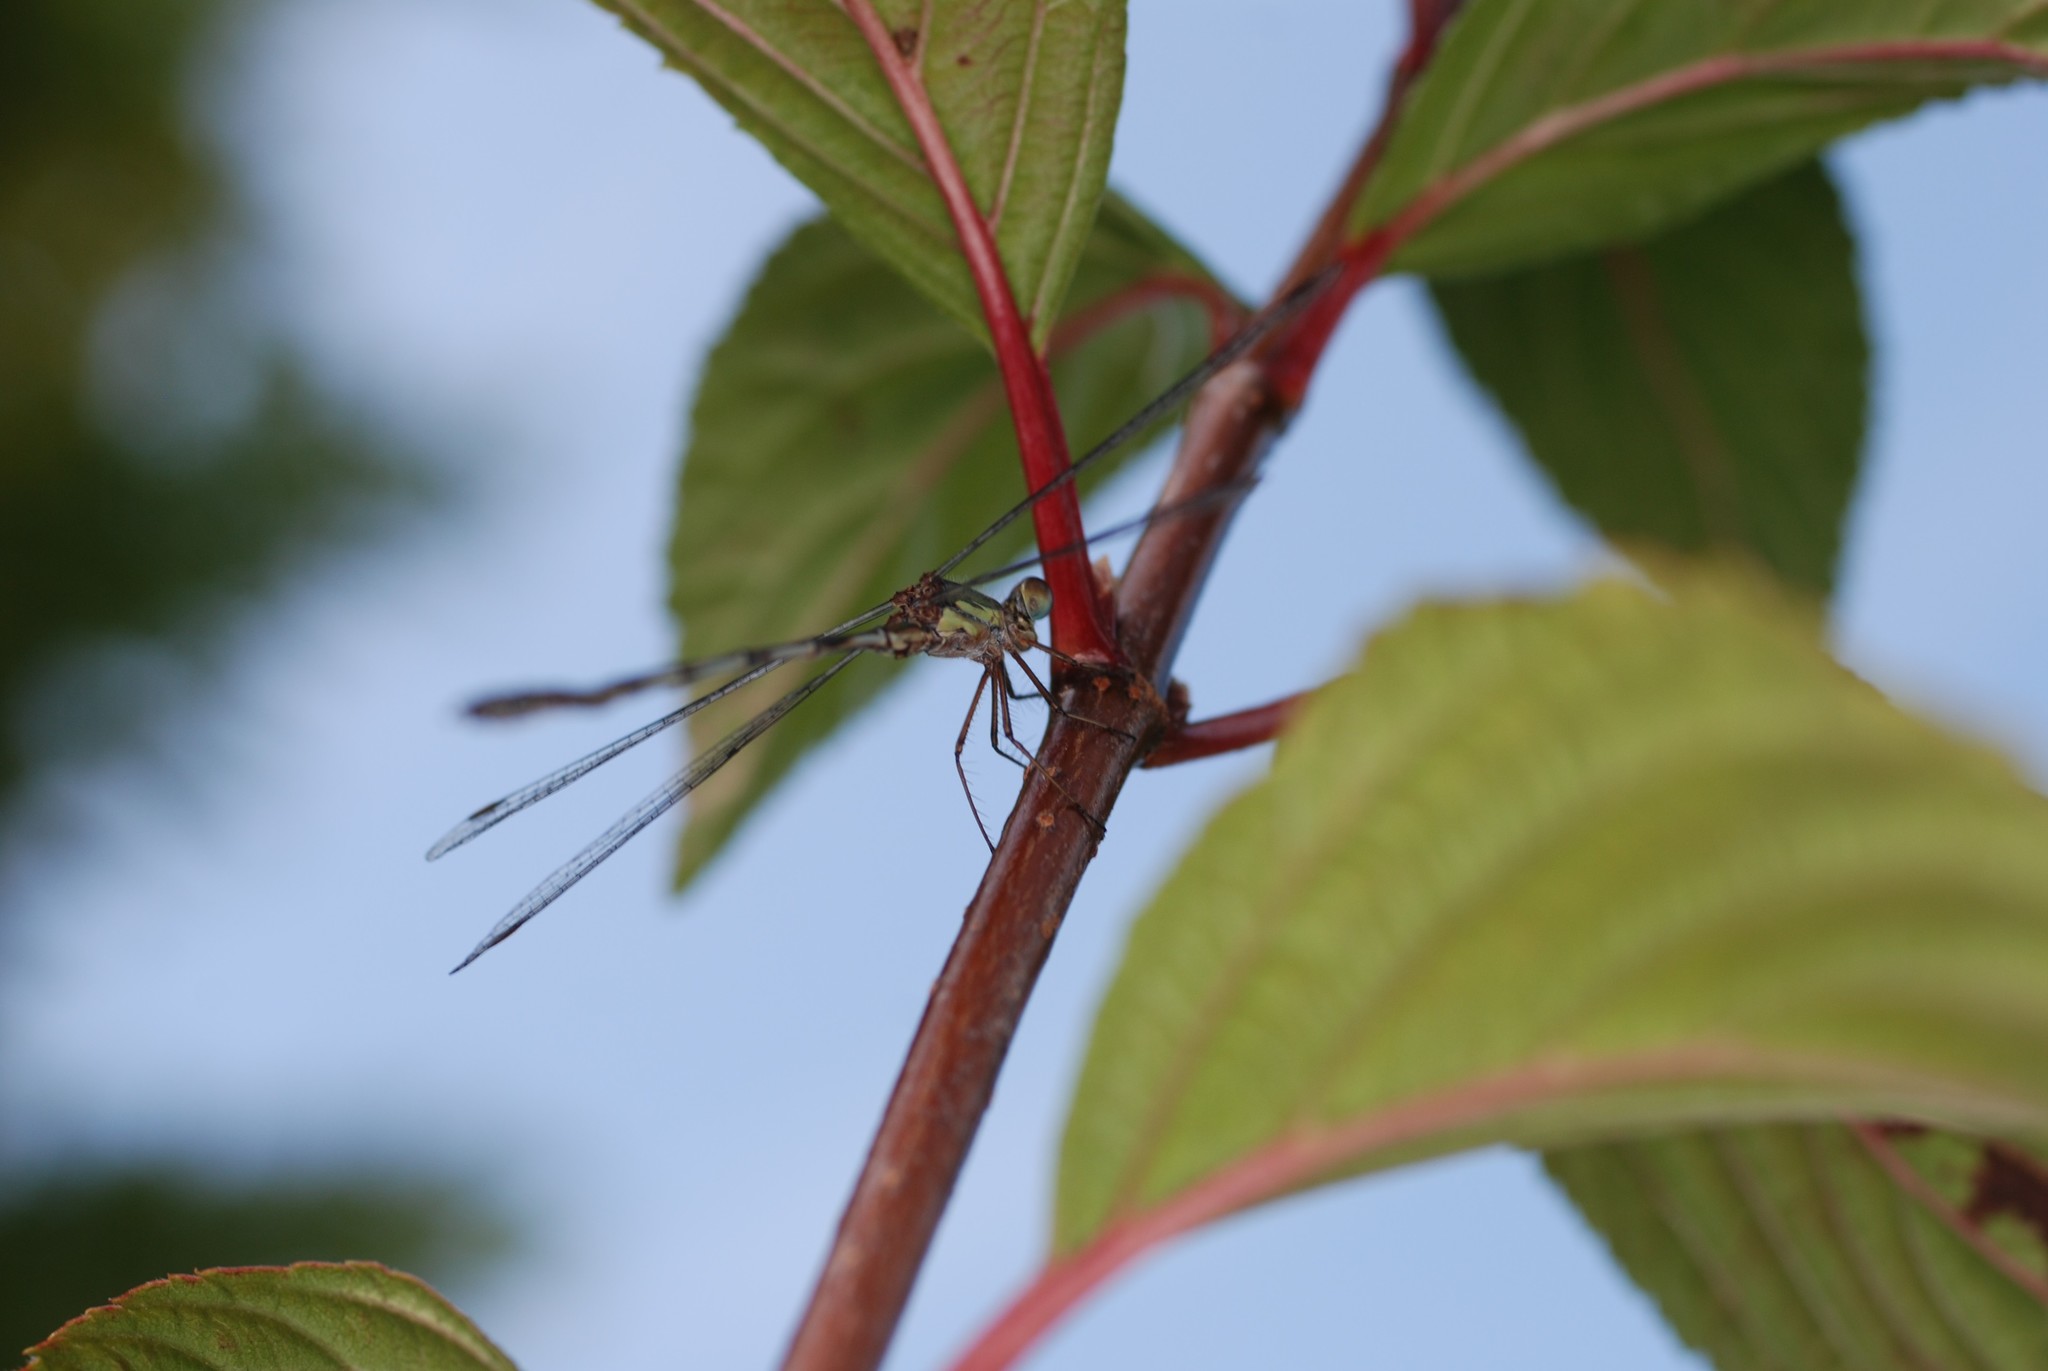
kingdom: Animalia
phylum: Arthropoda
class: Insecta
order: Odonata
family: Lestidae
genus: Chalcolestes
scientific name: Chalcolestes viridis
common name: Green emerald damselfly
